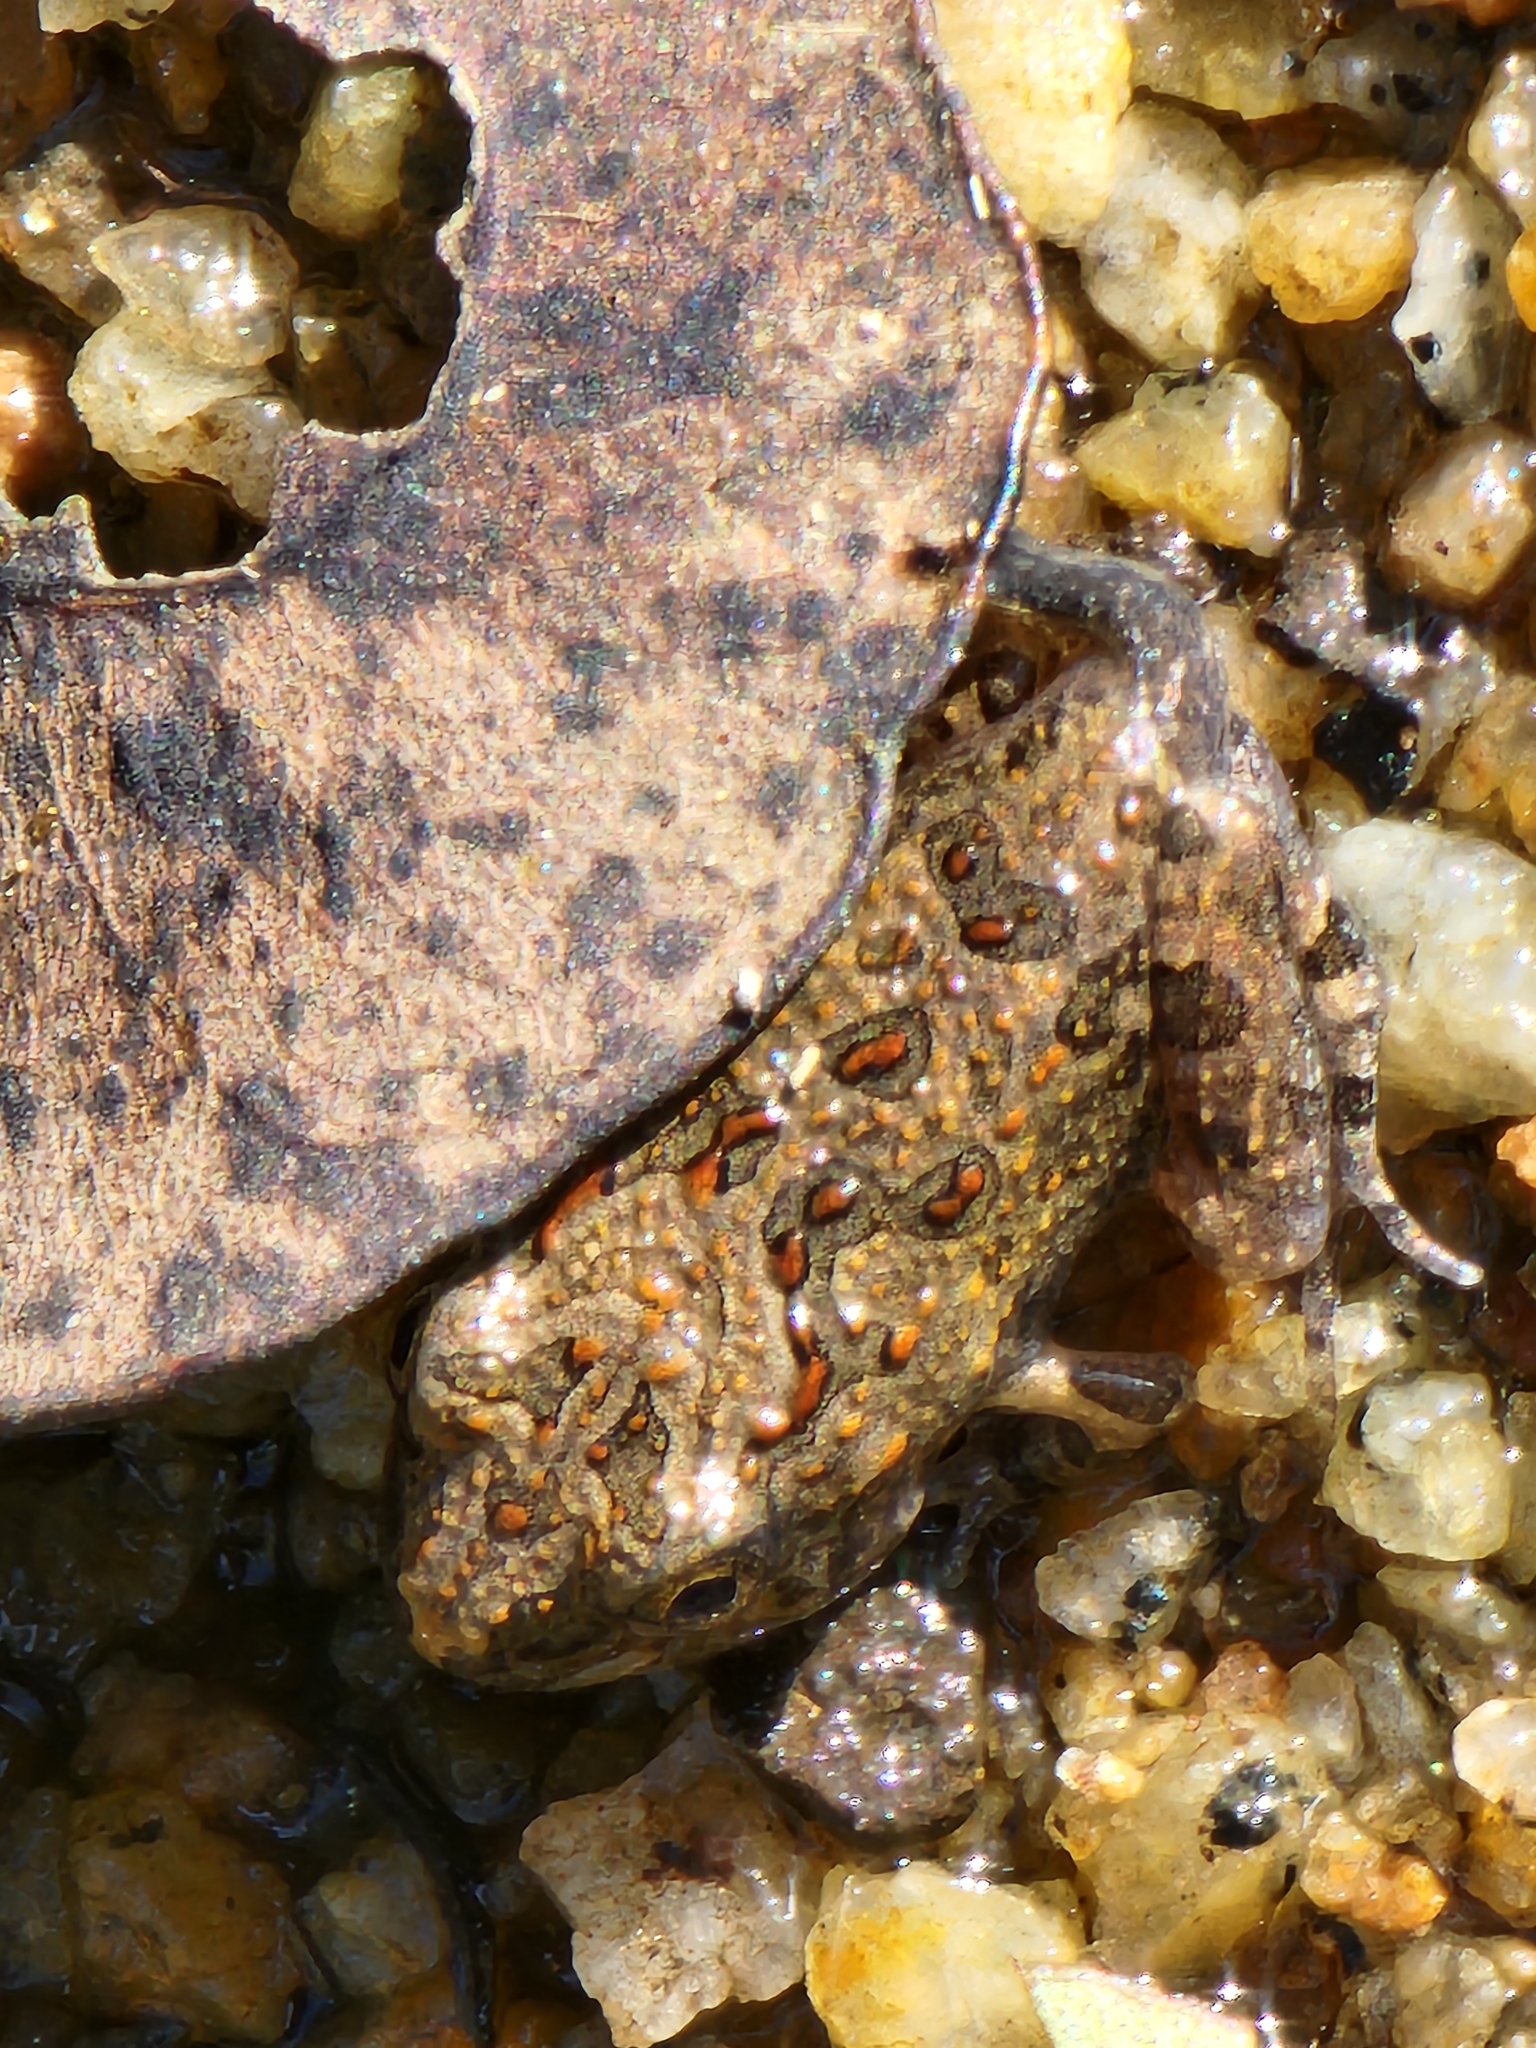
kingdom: Animalia
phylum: Chordata
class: Amphibia
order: Anura
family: Limnodynastidae
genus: Platyplectrum
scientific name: Platyplectrum ornatum
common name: Ornate burrowing frog
